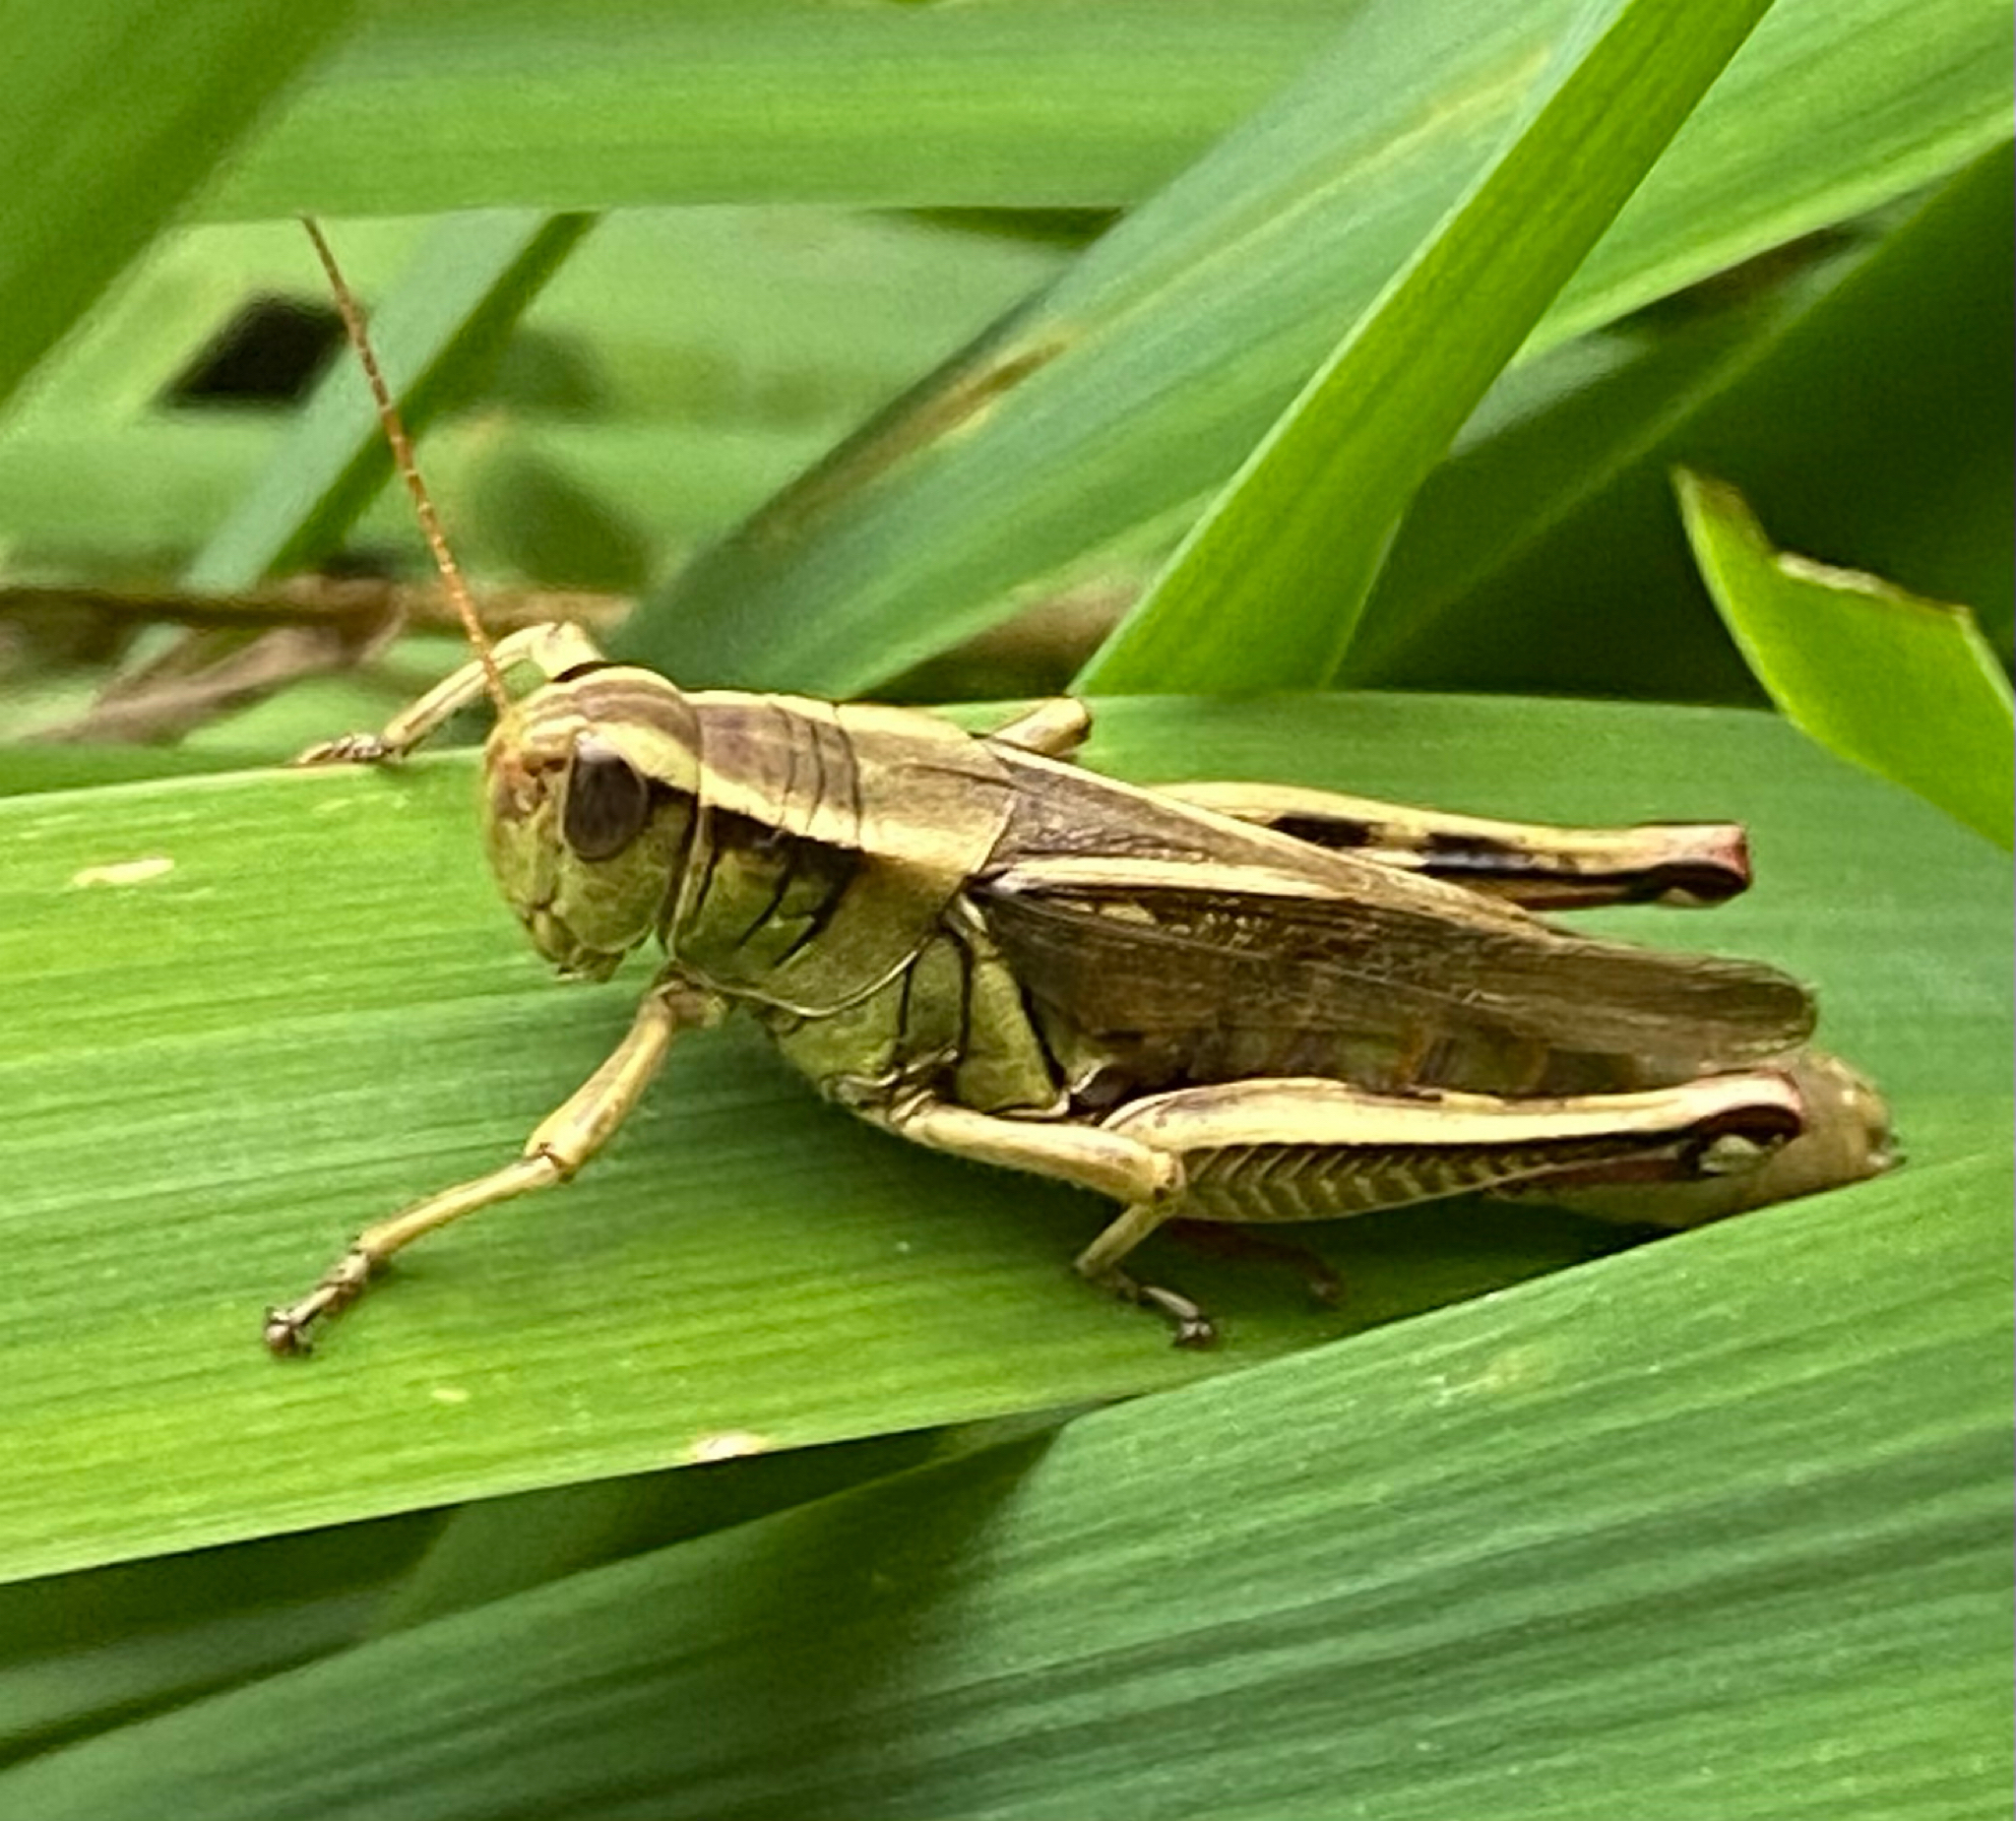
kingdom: Animalia
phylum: Arthropoda
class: Insecta
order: Orthoptera
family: Acrididae
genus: Melanoplus
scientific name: Melanoplus bivittatus
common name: Two-striped grasshopper
